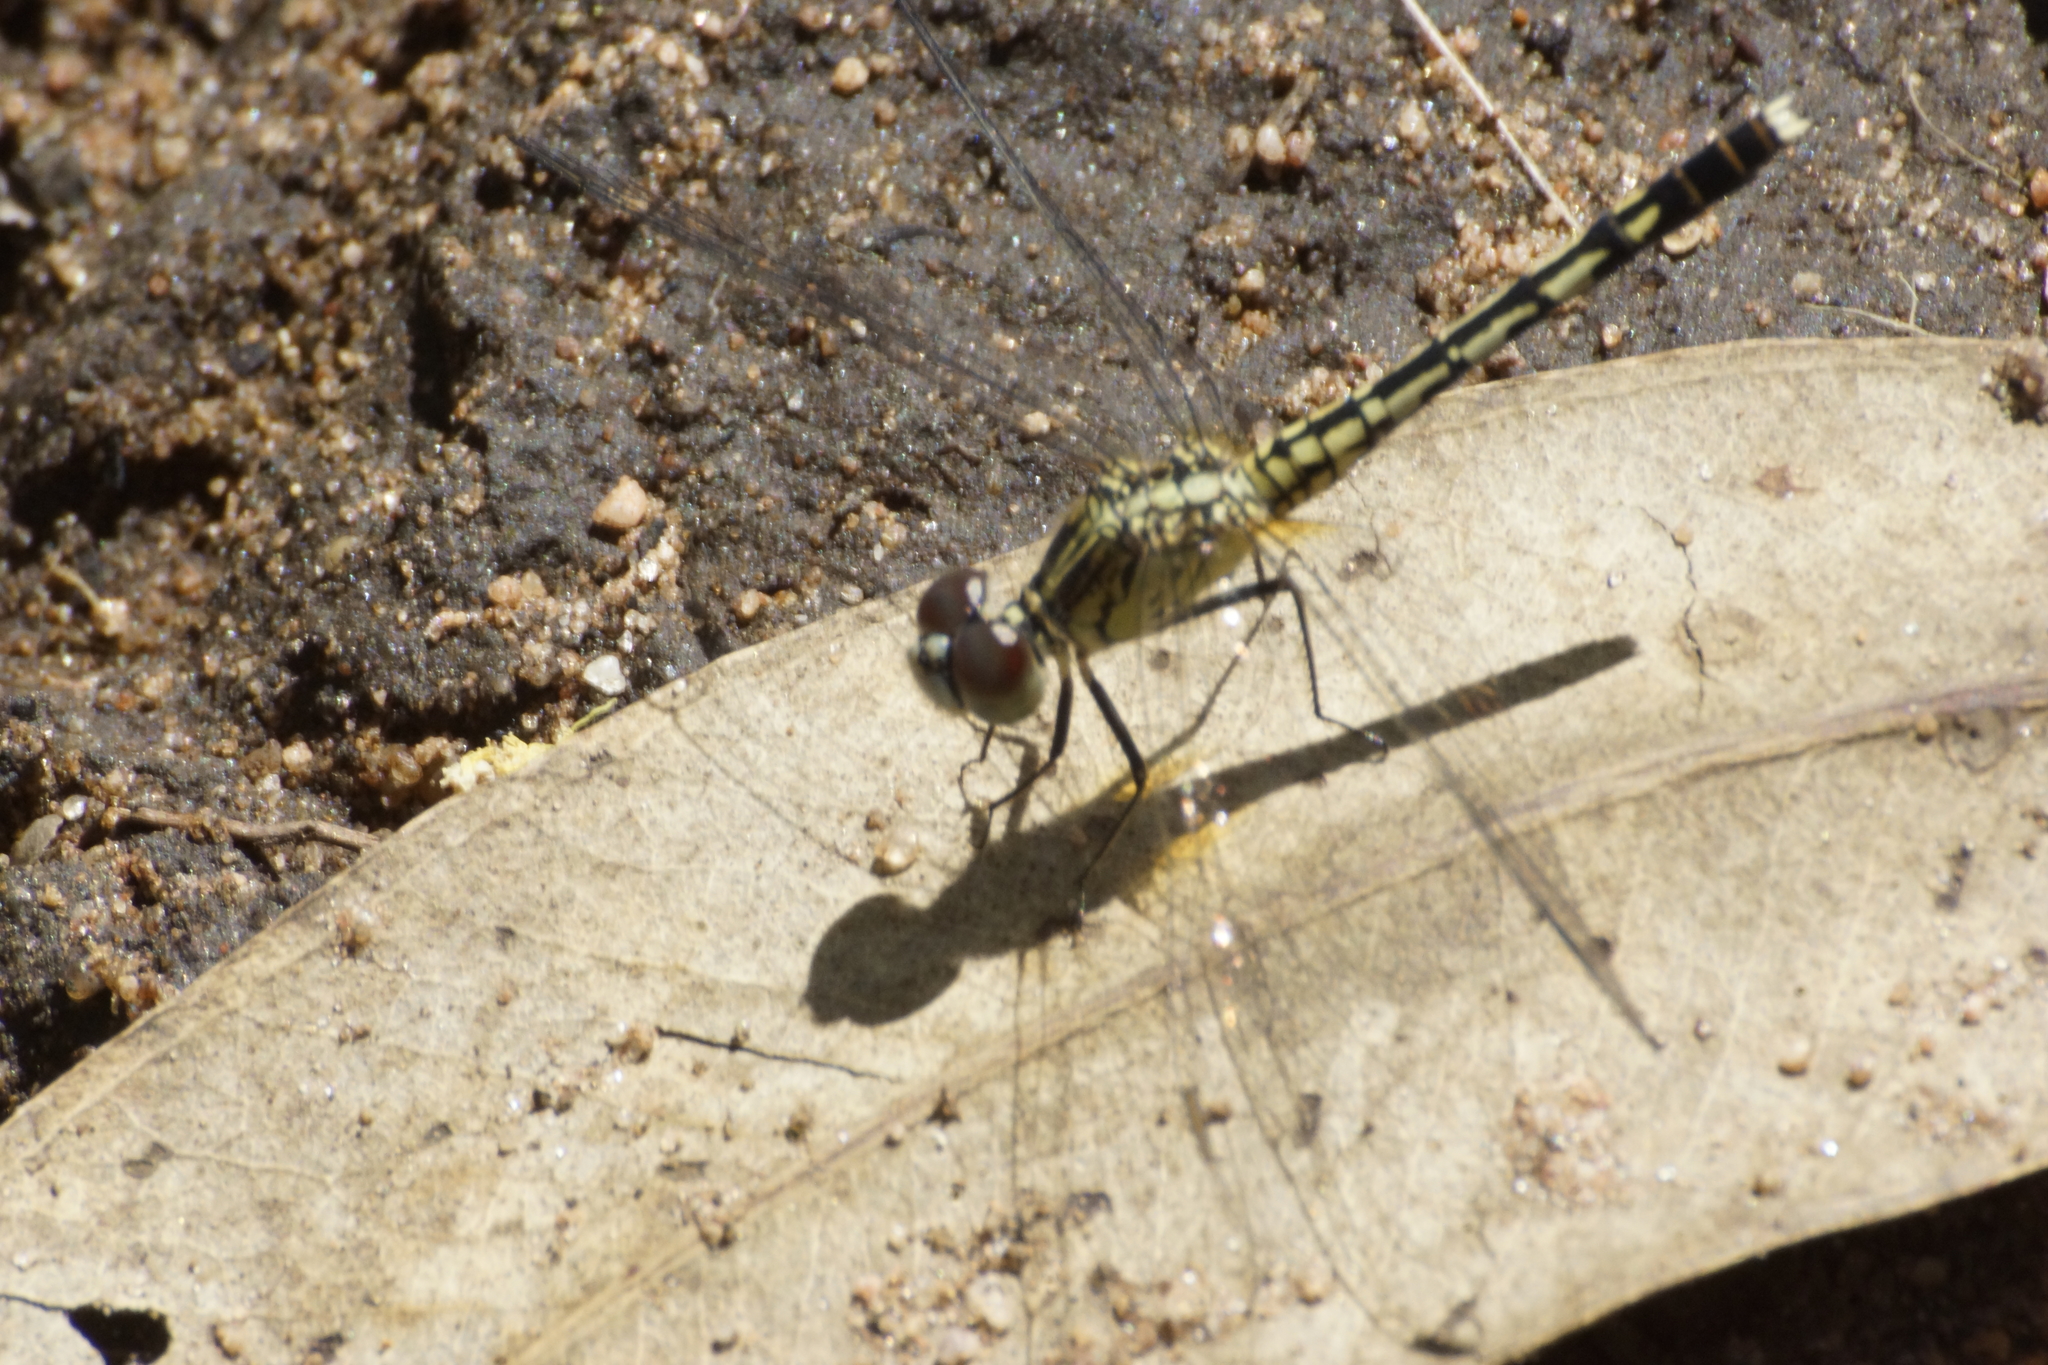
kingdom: Animalia
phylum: Arthropoda
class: Insecta
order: Odonata
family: Libellulidae
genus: Diplacodes
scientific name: Diplacodes trivialis
